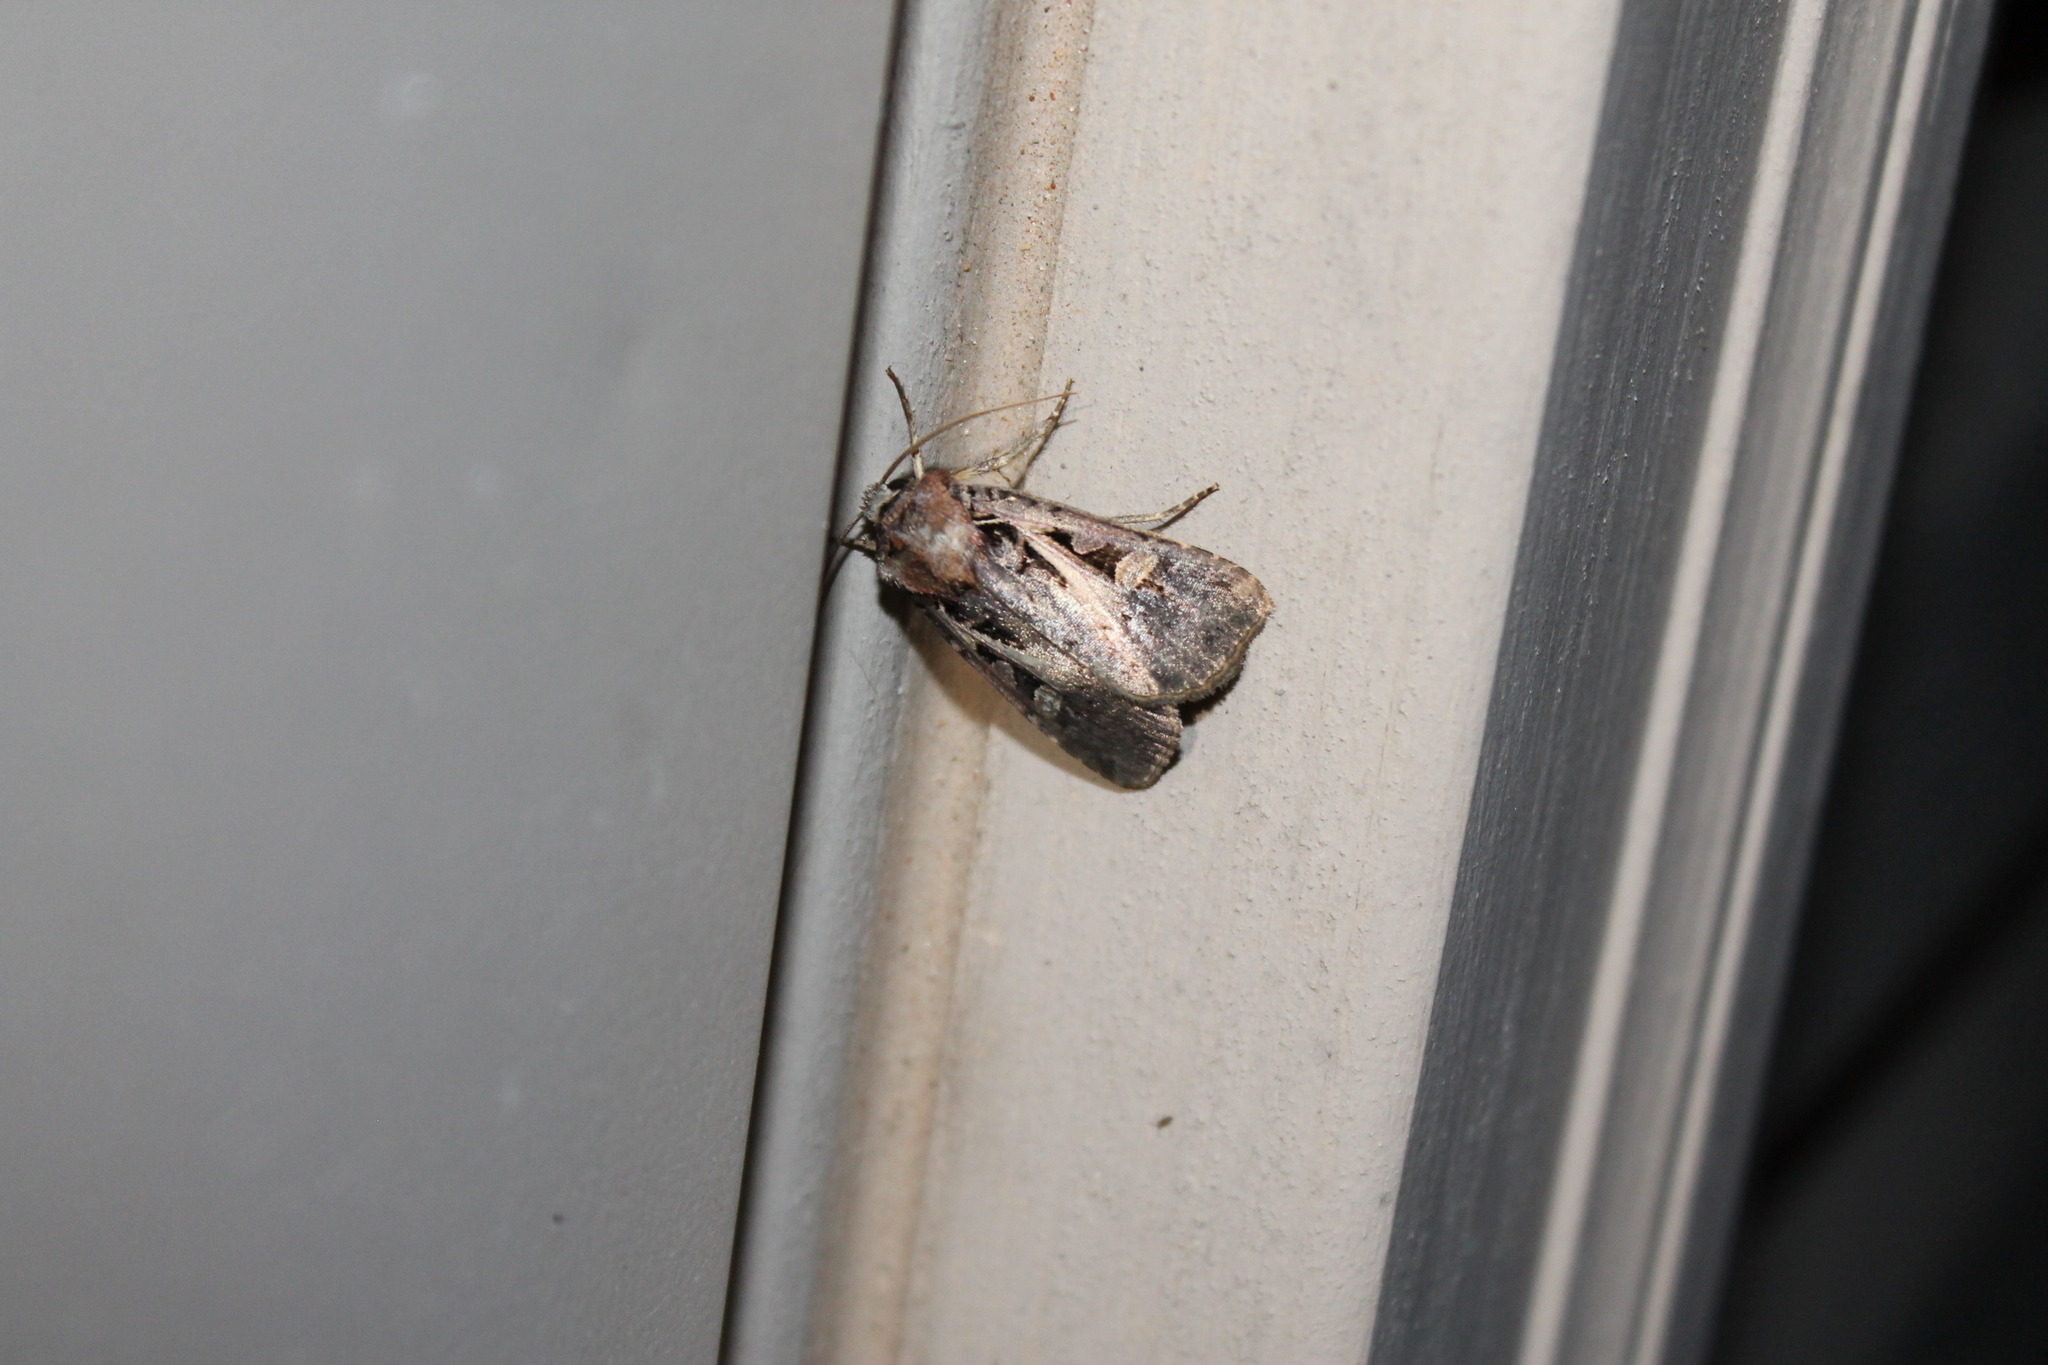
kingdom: Animalia
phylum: Arthropoda
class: Insecta
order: Lepidoptera
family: Noctuidae
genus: Feltia
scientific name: Feltia herilis
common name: Master's dart
